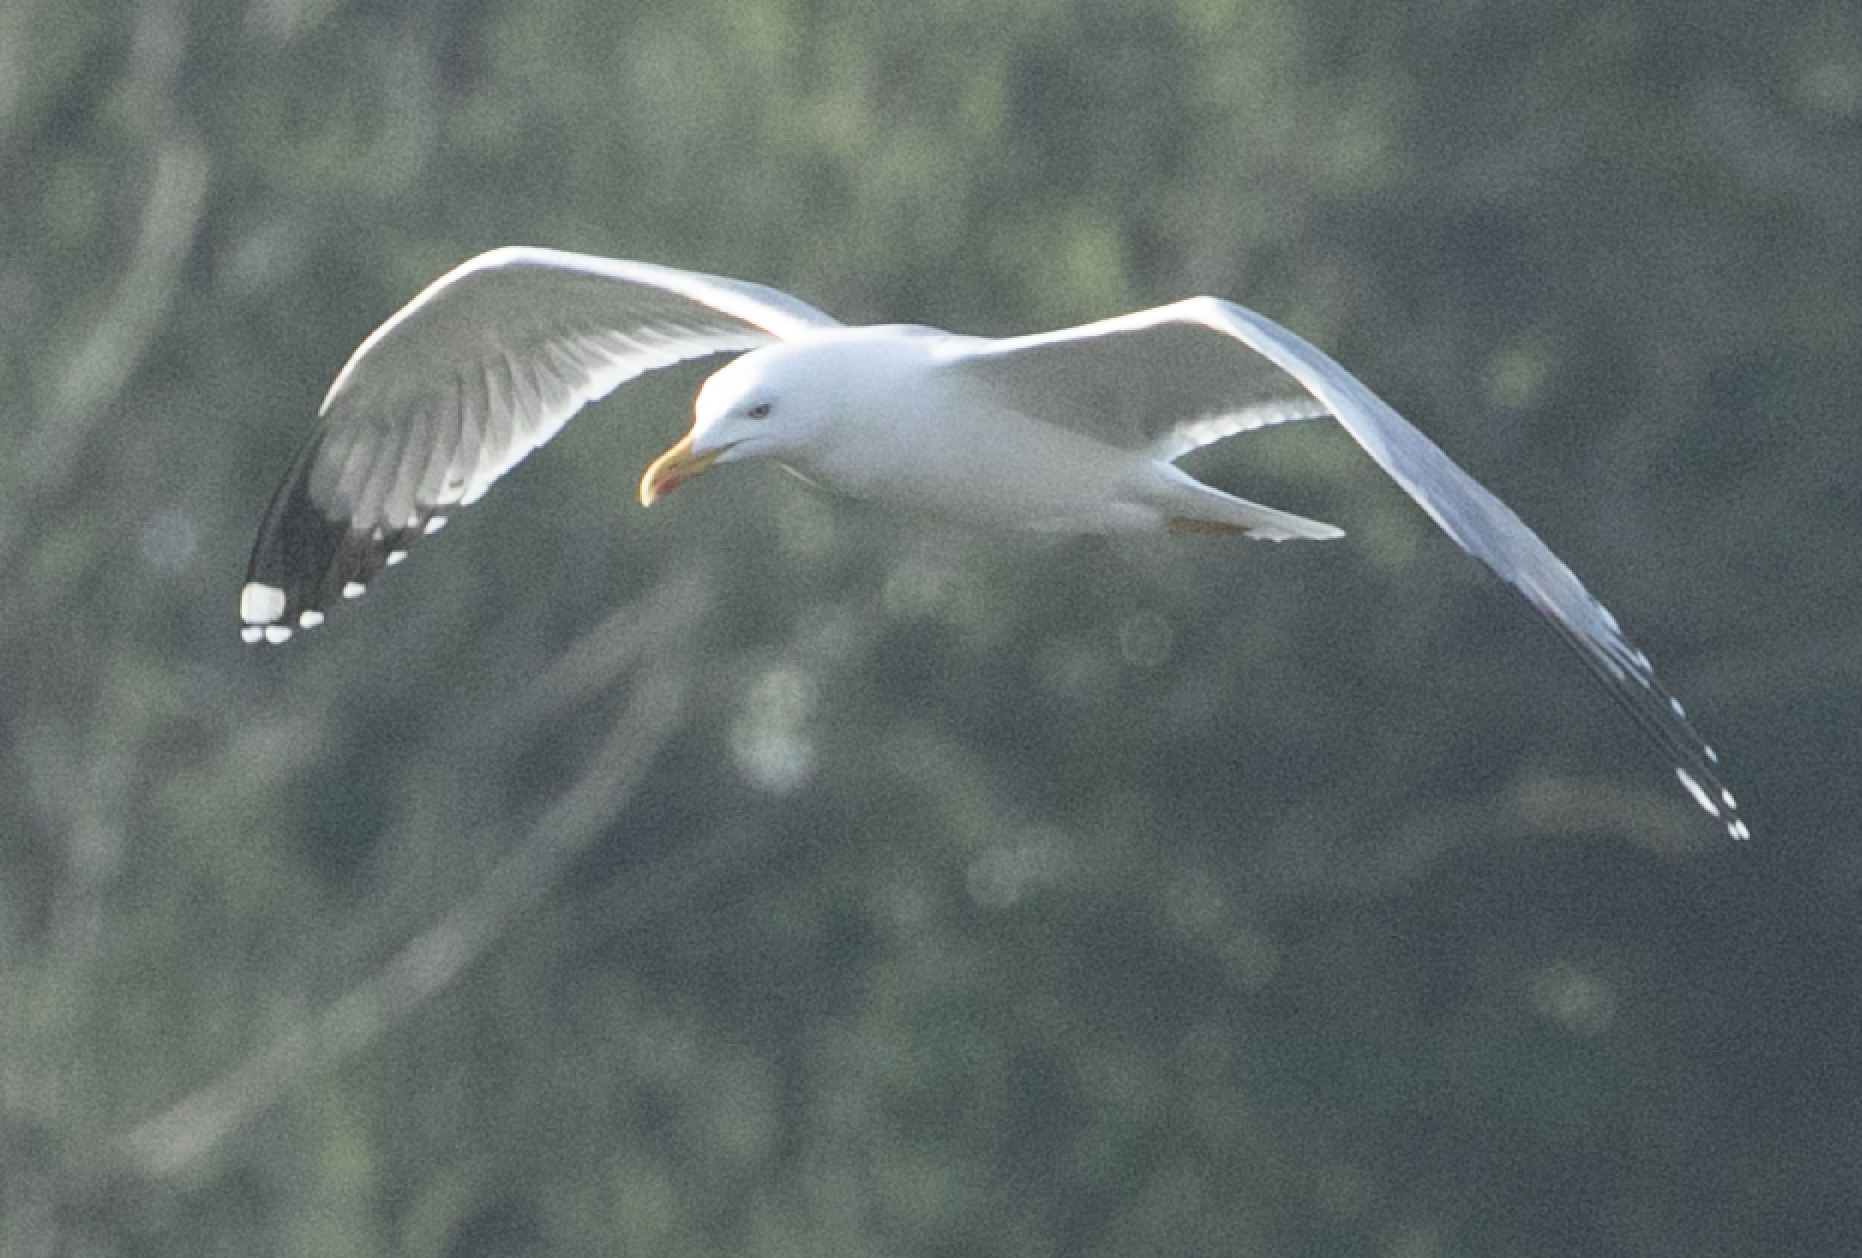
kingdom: Animalia
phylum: Chordata
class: Aves
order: Charadriiformes
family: Laridae
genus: Larus
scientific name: Larus michahellis
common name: Yellow-legged gull
